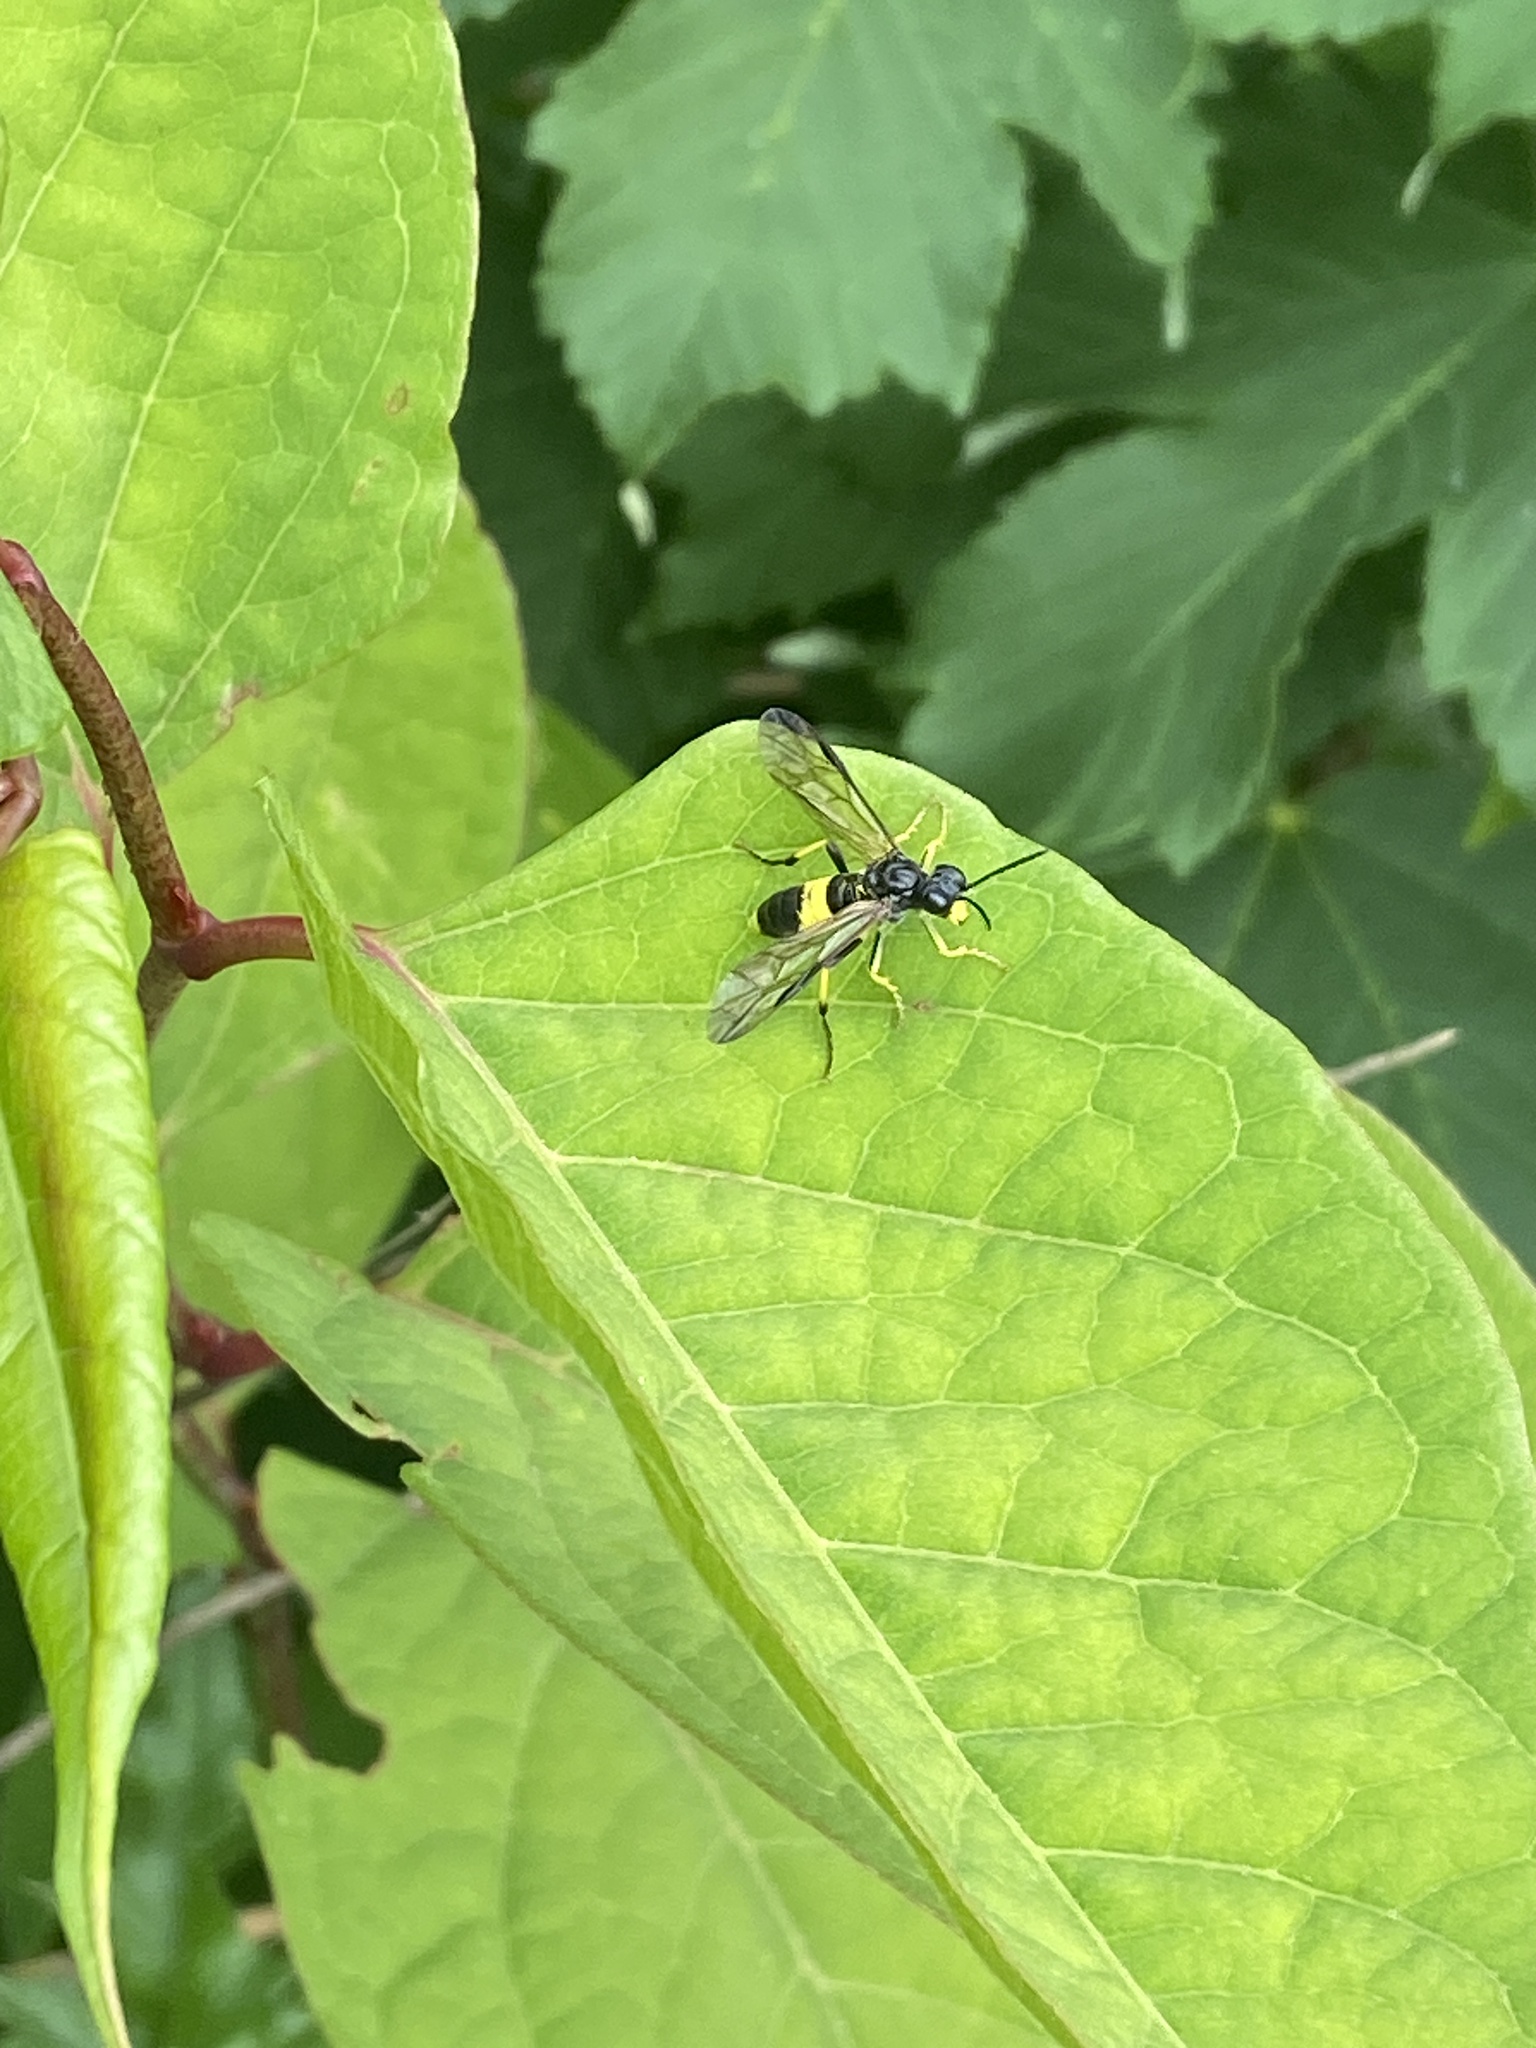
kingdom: Animalia
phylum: Arthropoda
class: Insecta
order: Hymenoptera
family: Tenthredinidae
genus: Tenthredo
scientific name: Tenthredo temula
